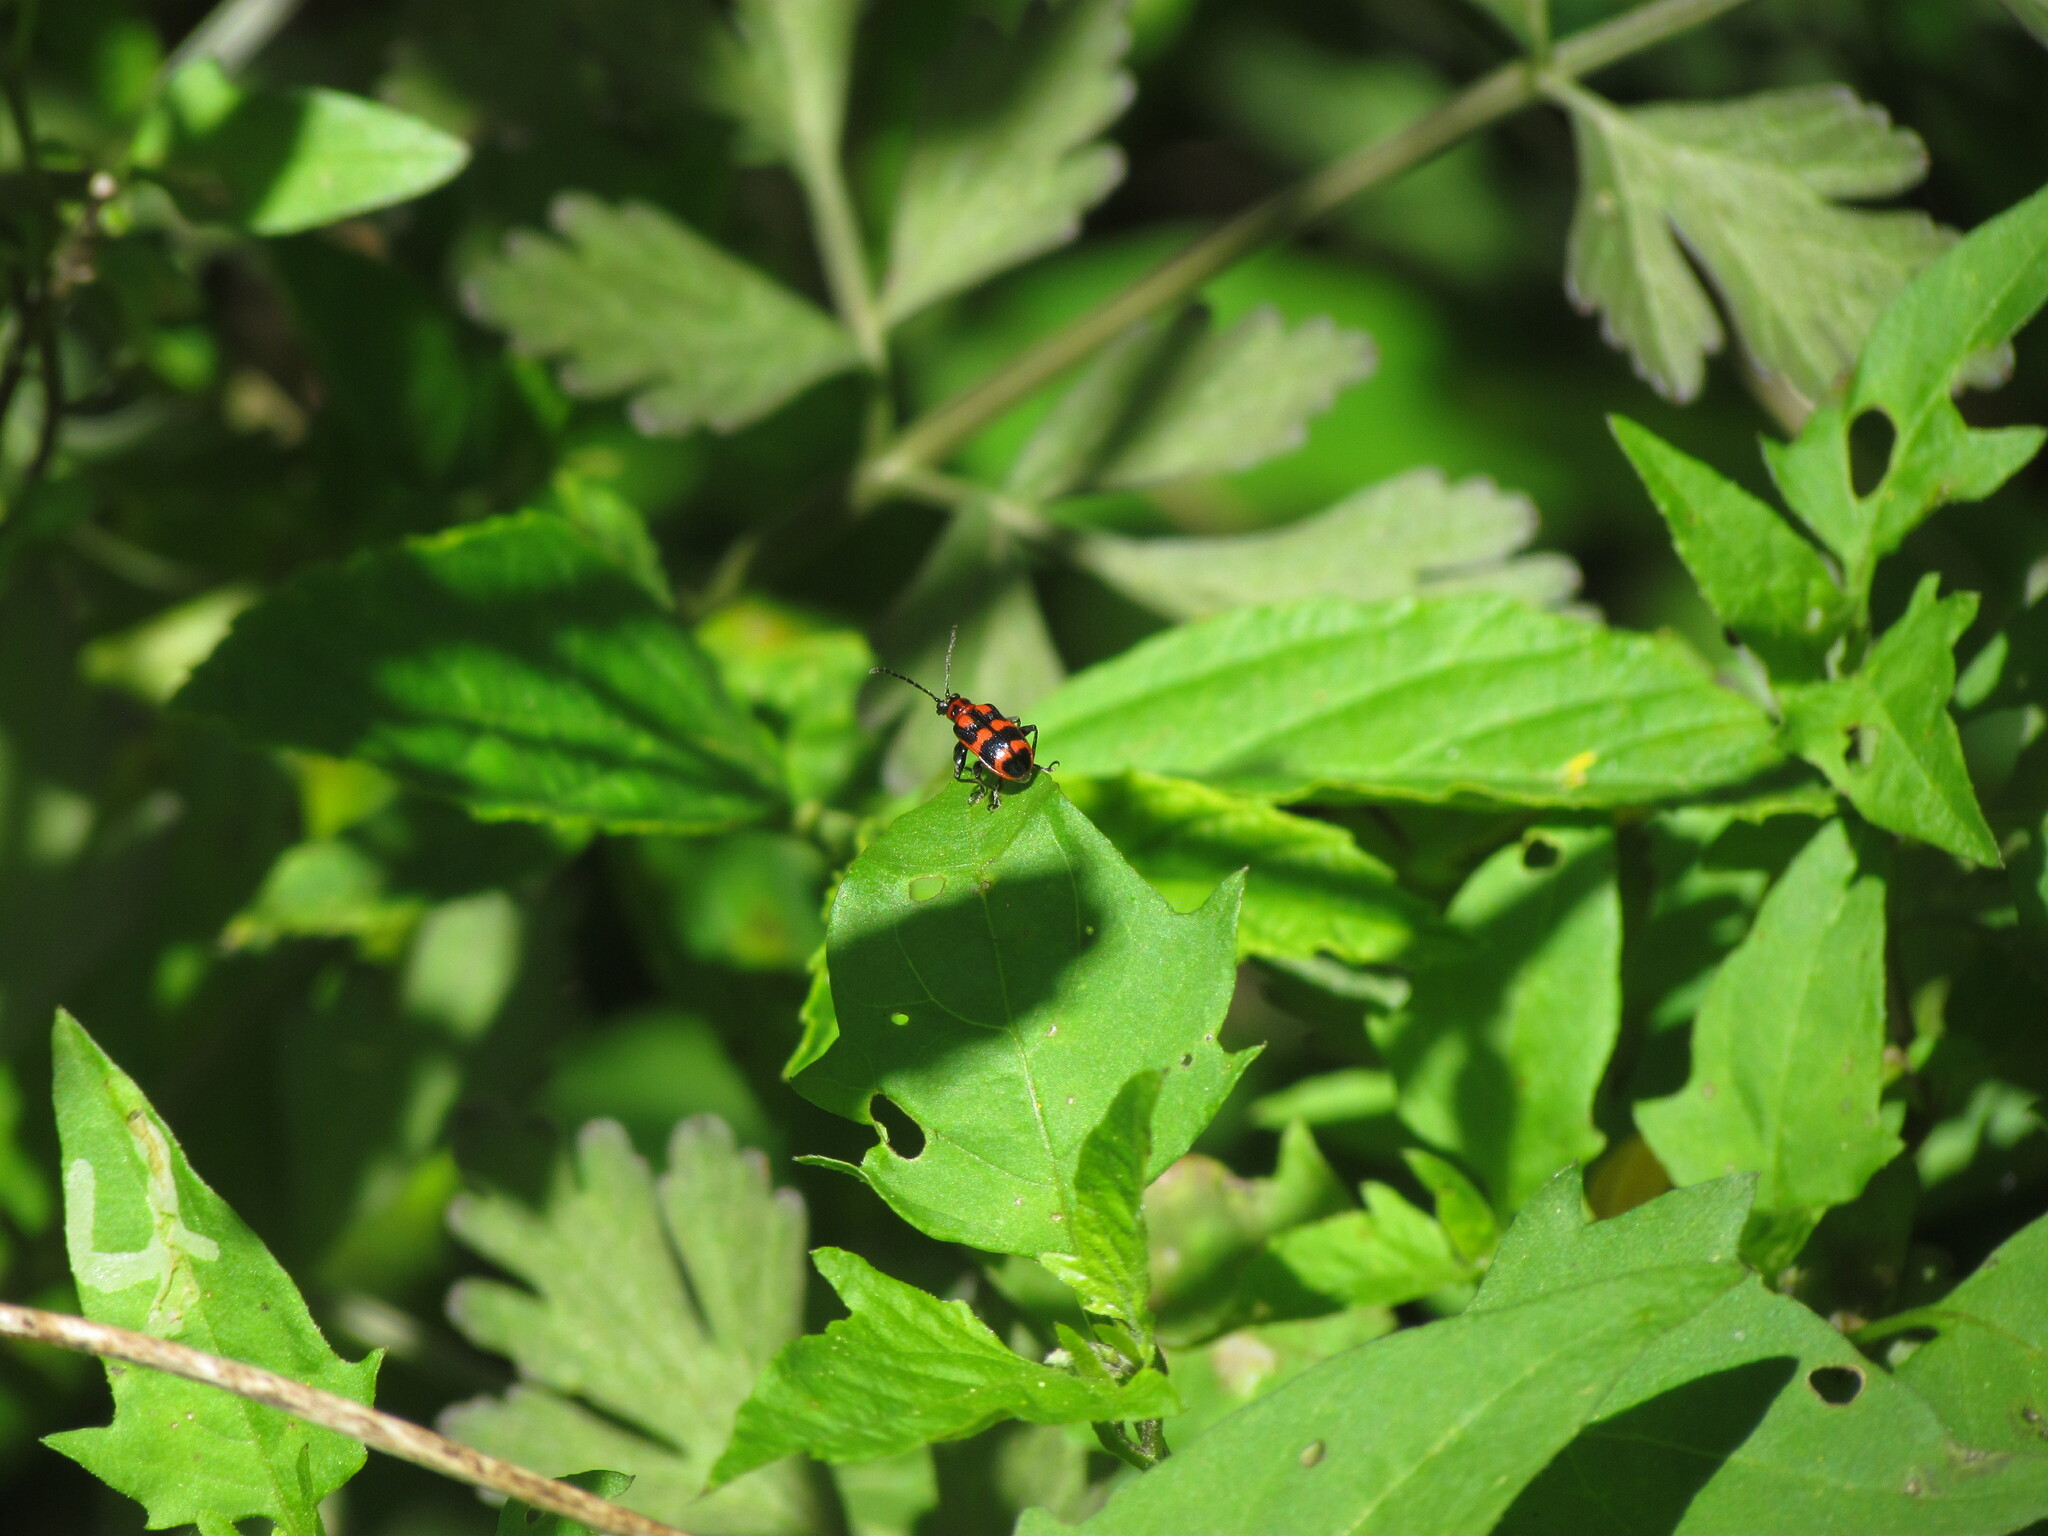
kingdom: Animalia
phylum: Arthropoda
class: Insecta
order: Coleoptera
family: Chrysomelidae
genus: Neolema
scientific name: Neolema
